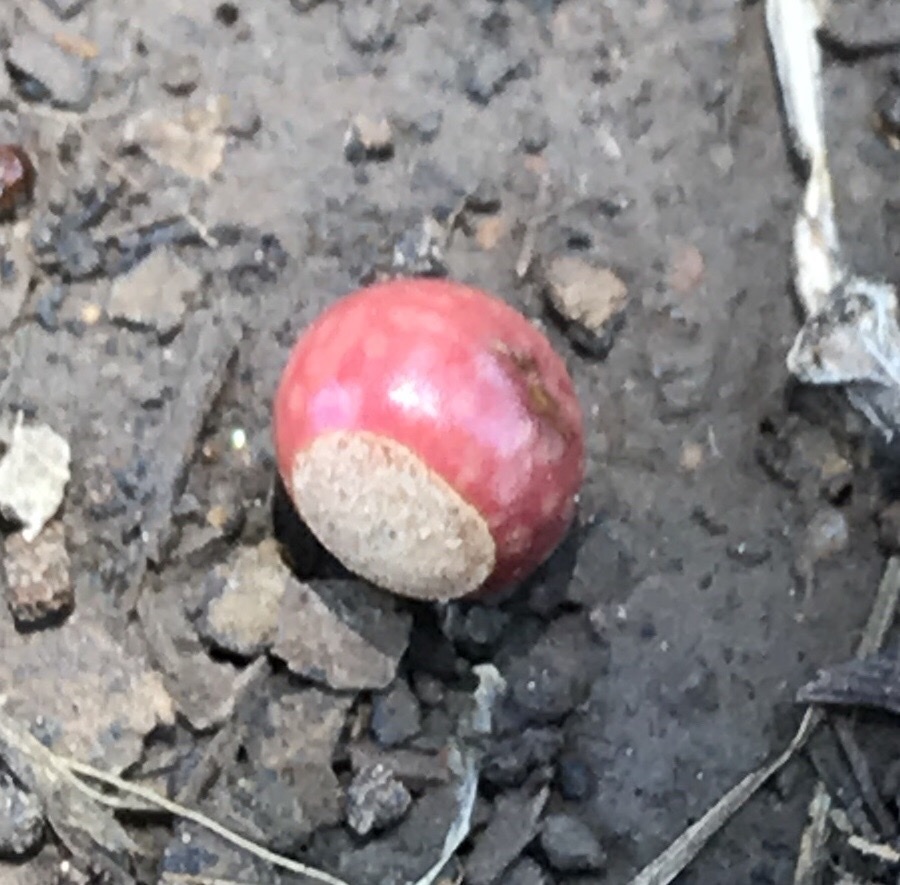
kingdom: Animalia
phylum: Arthropoda
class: Insecta
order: Hymenoptera
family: Cynipidae
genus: Kokkocynips
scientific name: Kokkocynips rileyi
